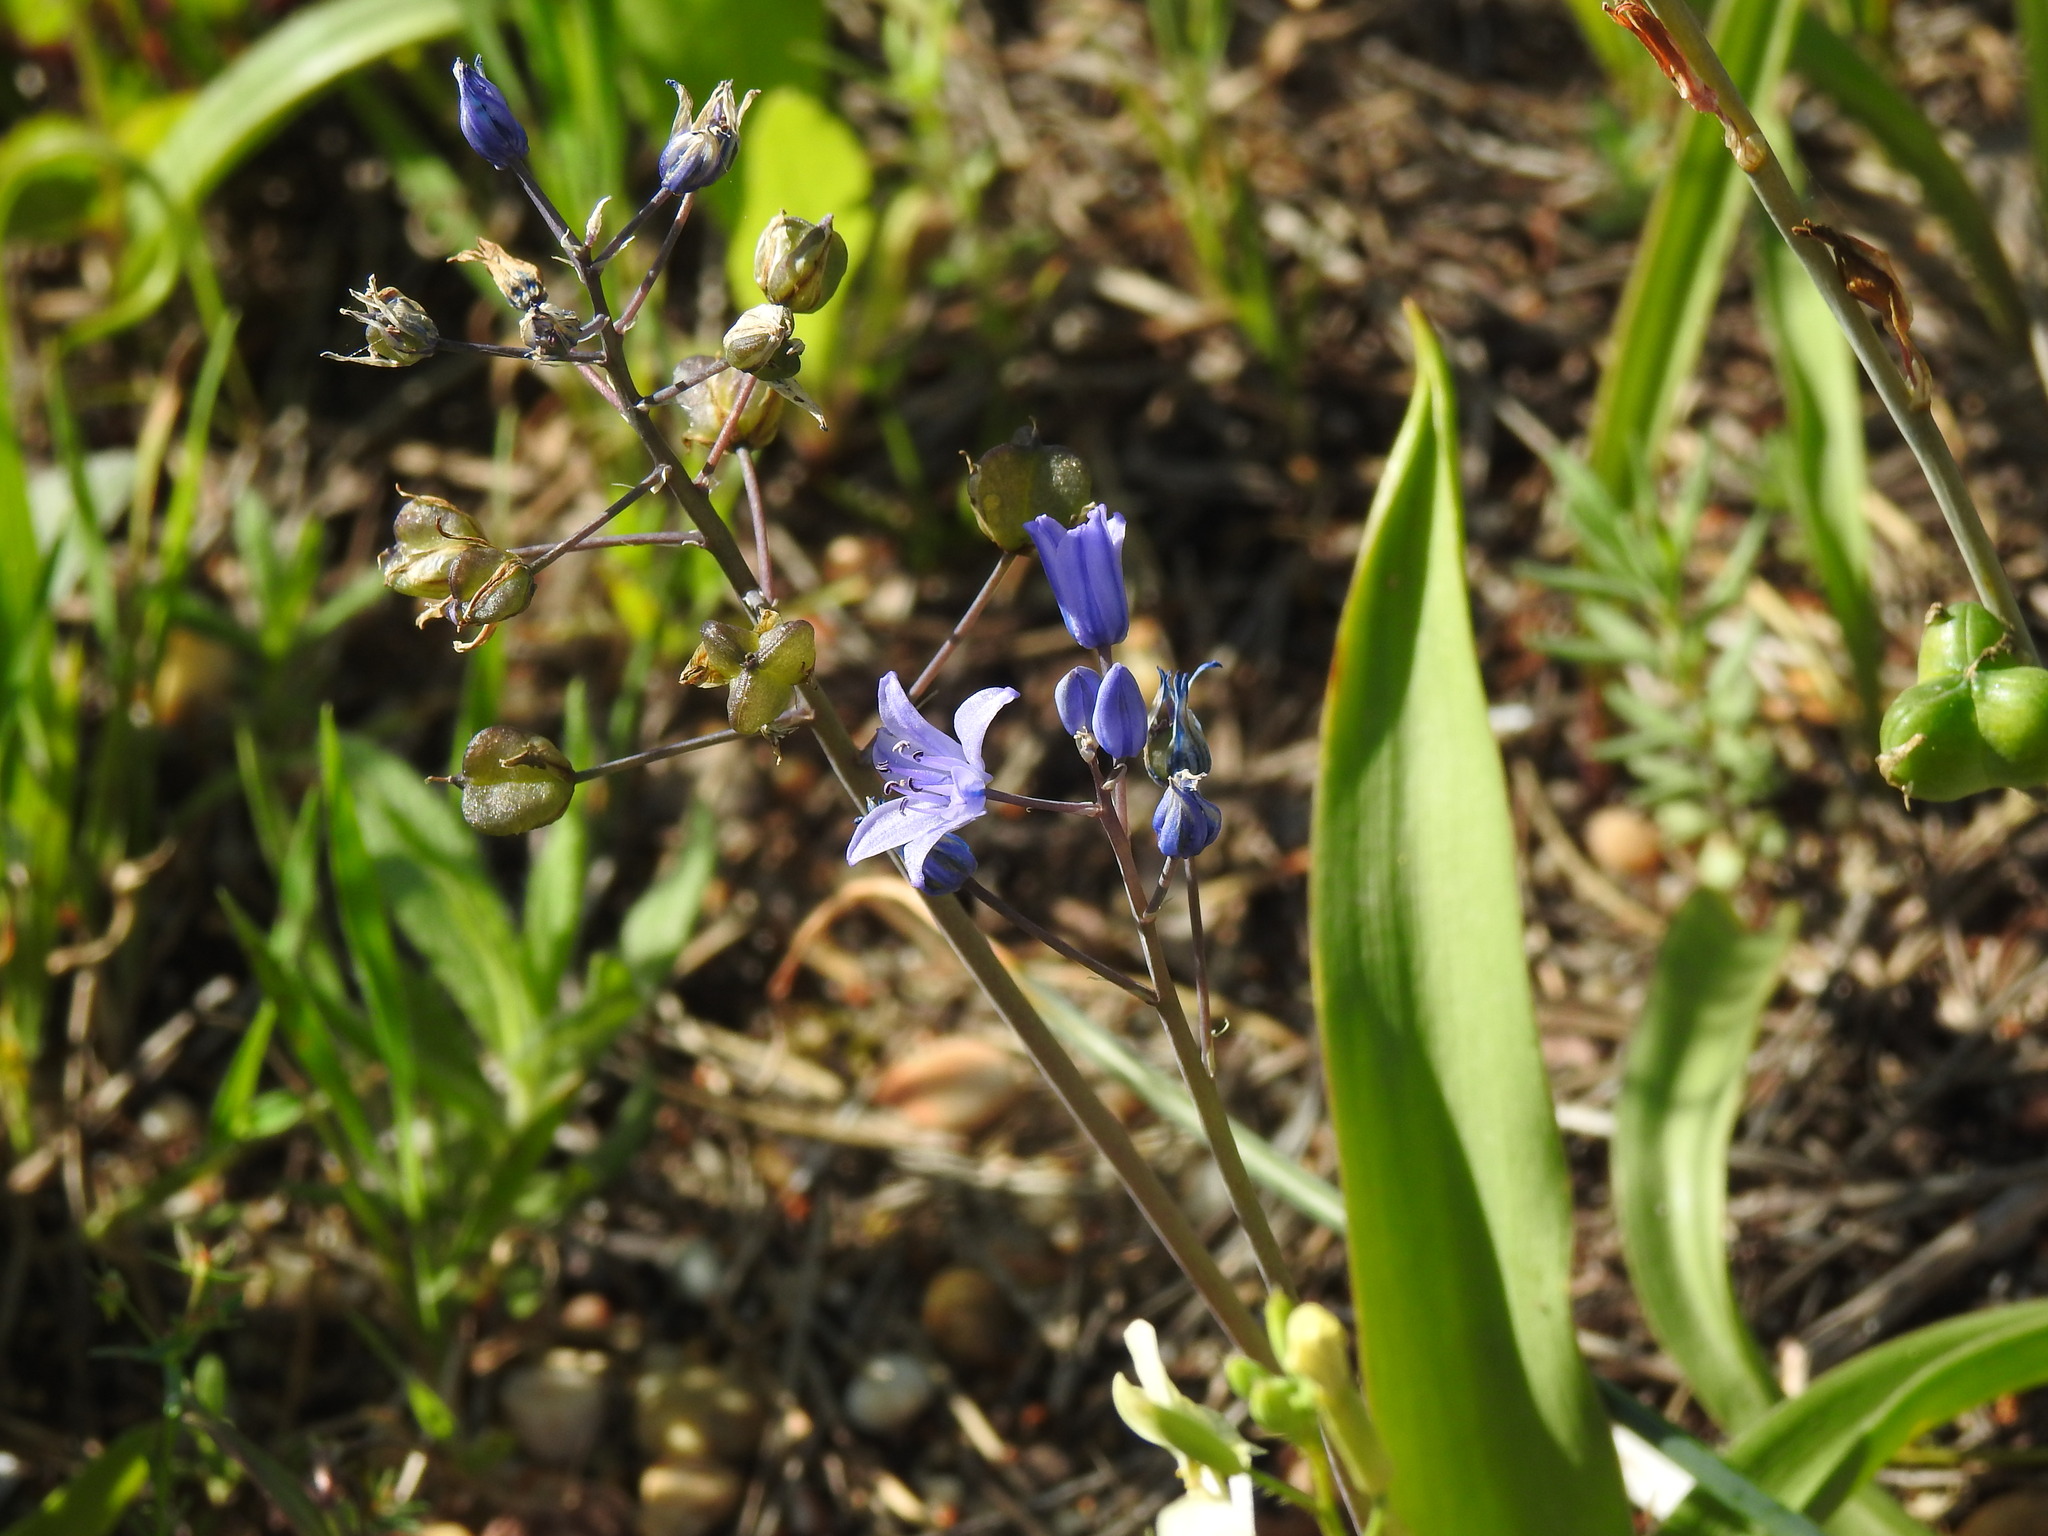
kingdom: Plantae
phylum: Tracheophyta
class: Liliopsida
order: Asparagales
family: Asparagaceae
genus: Scilla
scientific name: Scilla monophyllos
